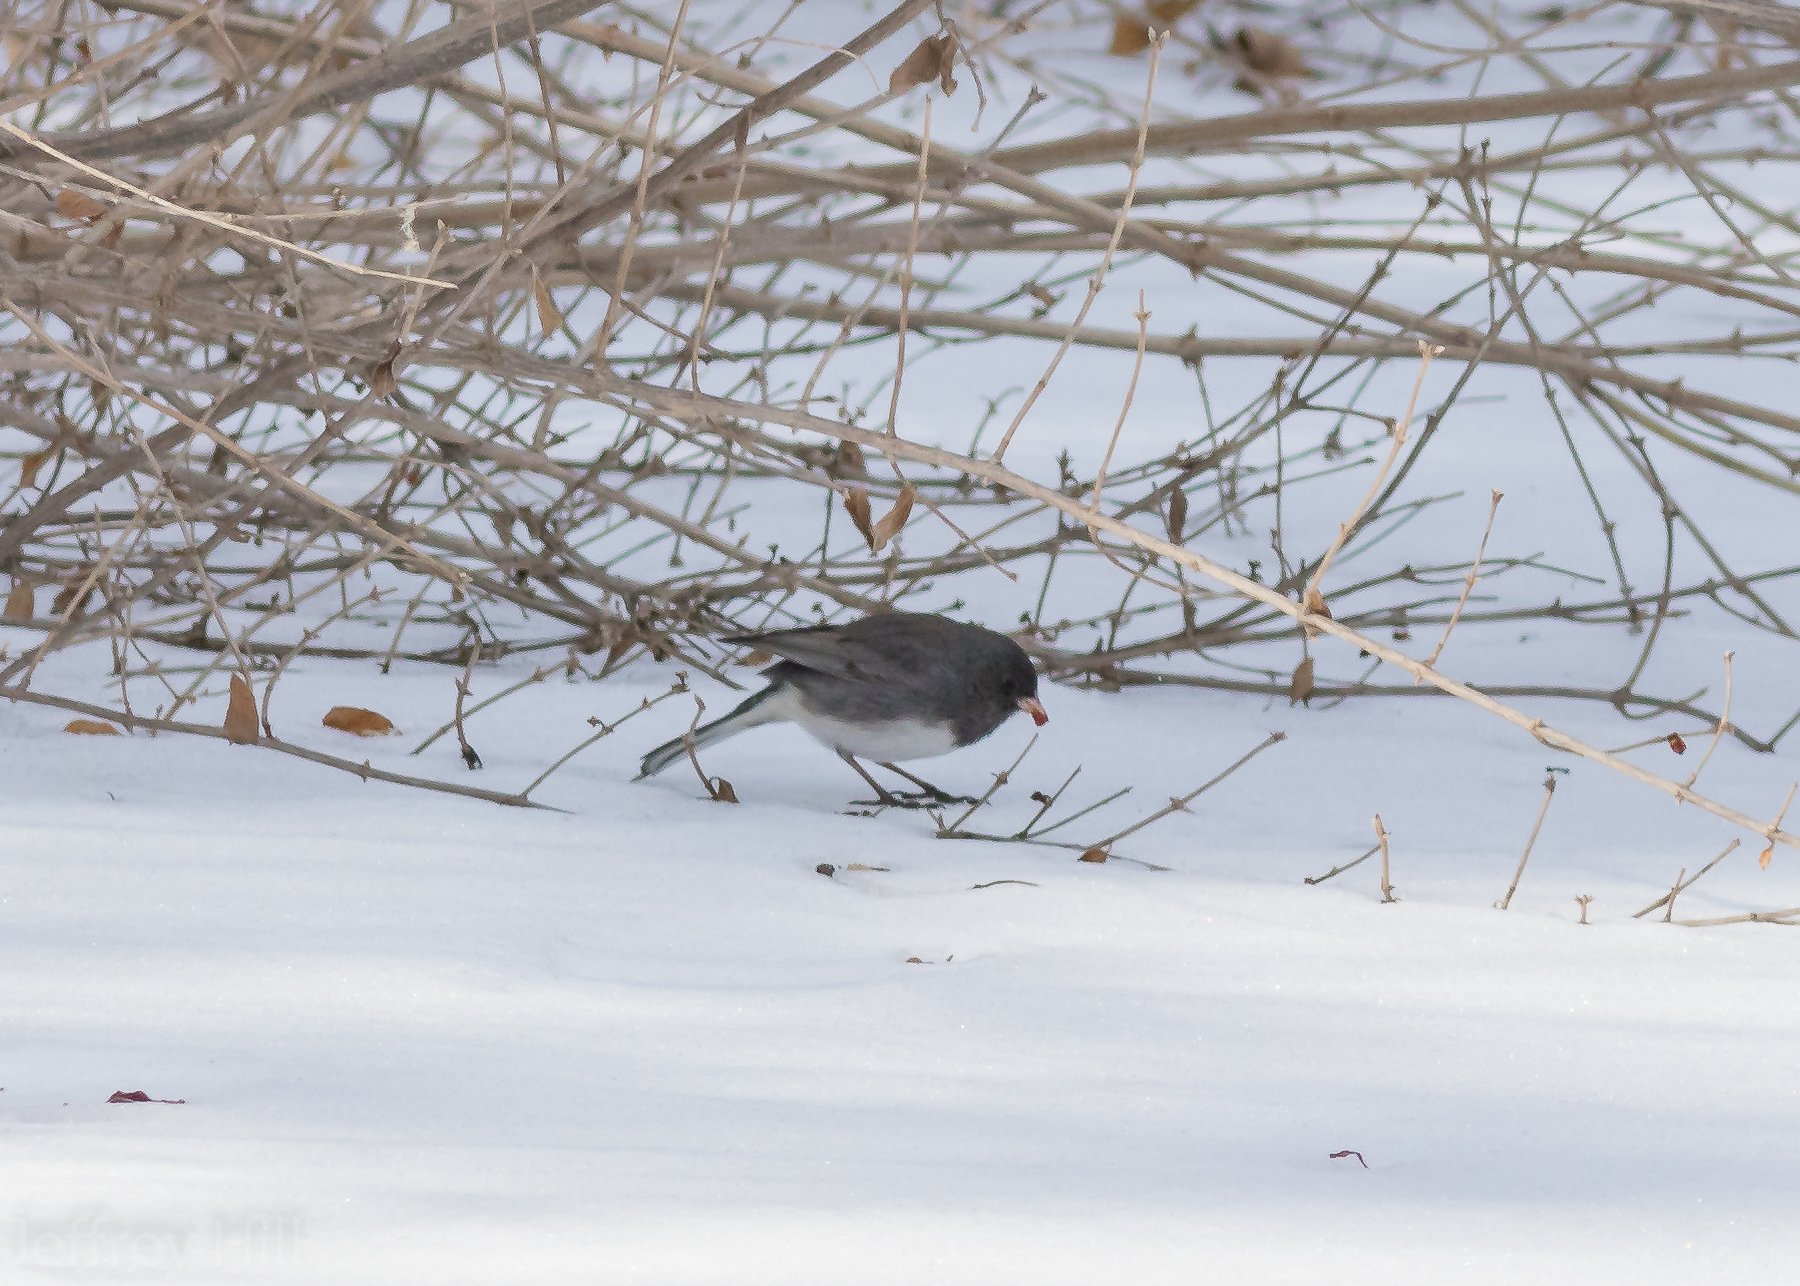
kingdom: Animalia
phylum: Chordata
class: Aves
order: Passeriformes
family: Passerellidae
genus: Junco
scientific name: Junco hyemalis
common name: Dark-eyed junco
